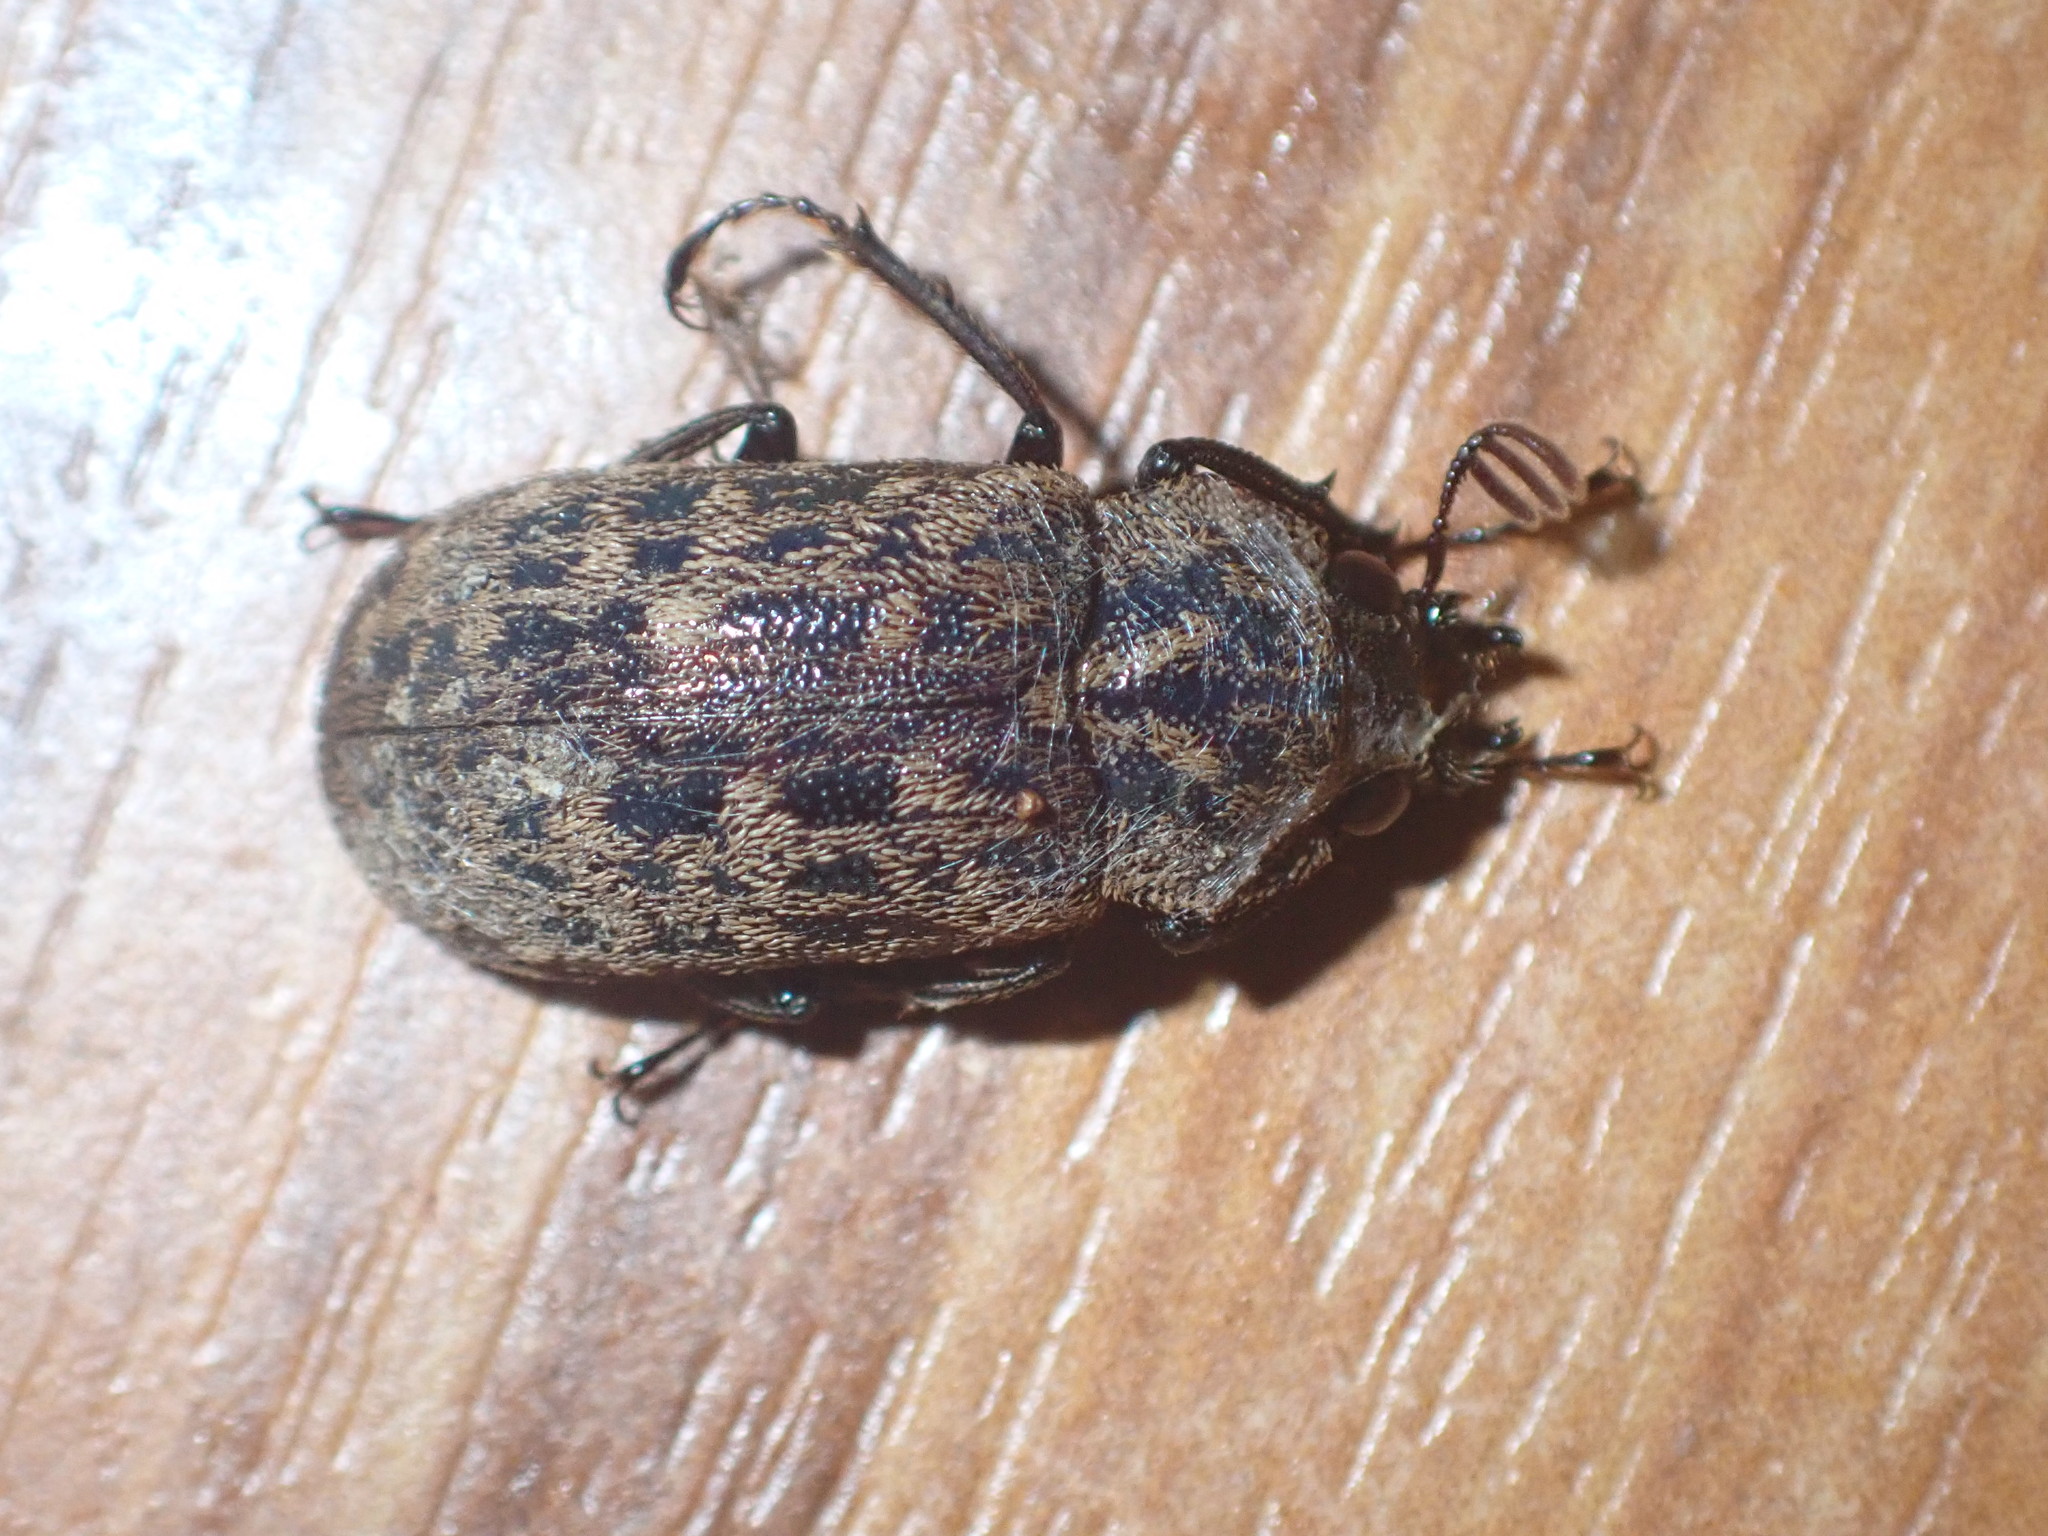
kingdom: Animalia
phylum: Arthropoda
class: Insecta
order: Coleoptera
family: Lucanidae
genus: Mitophyllus
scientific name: Mitophyllus parrianus
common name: Parry's stag beetle
